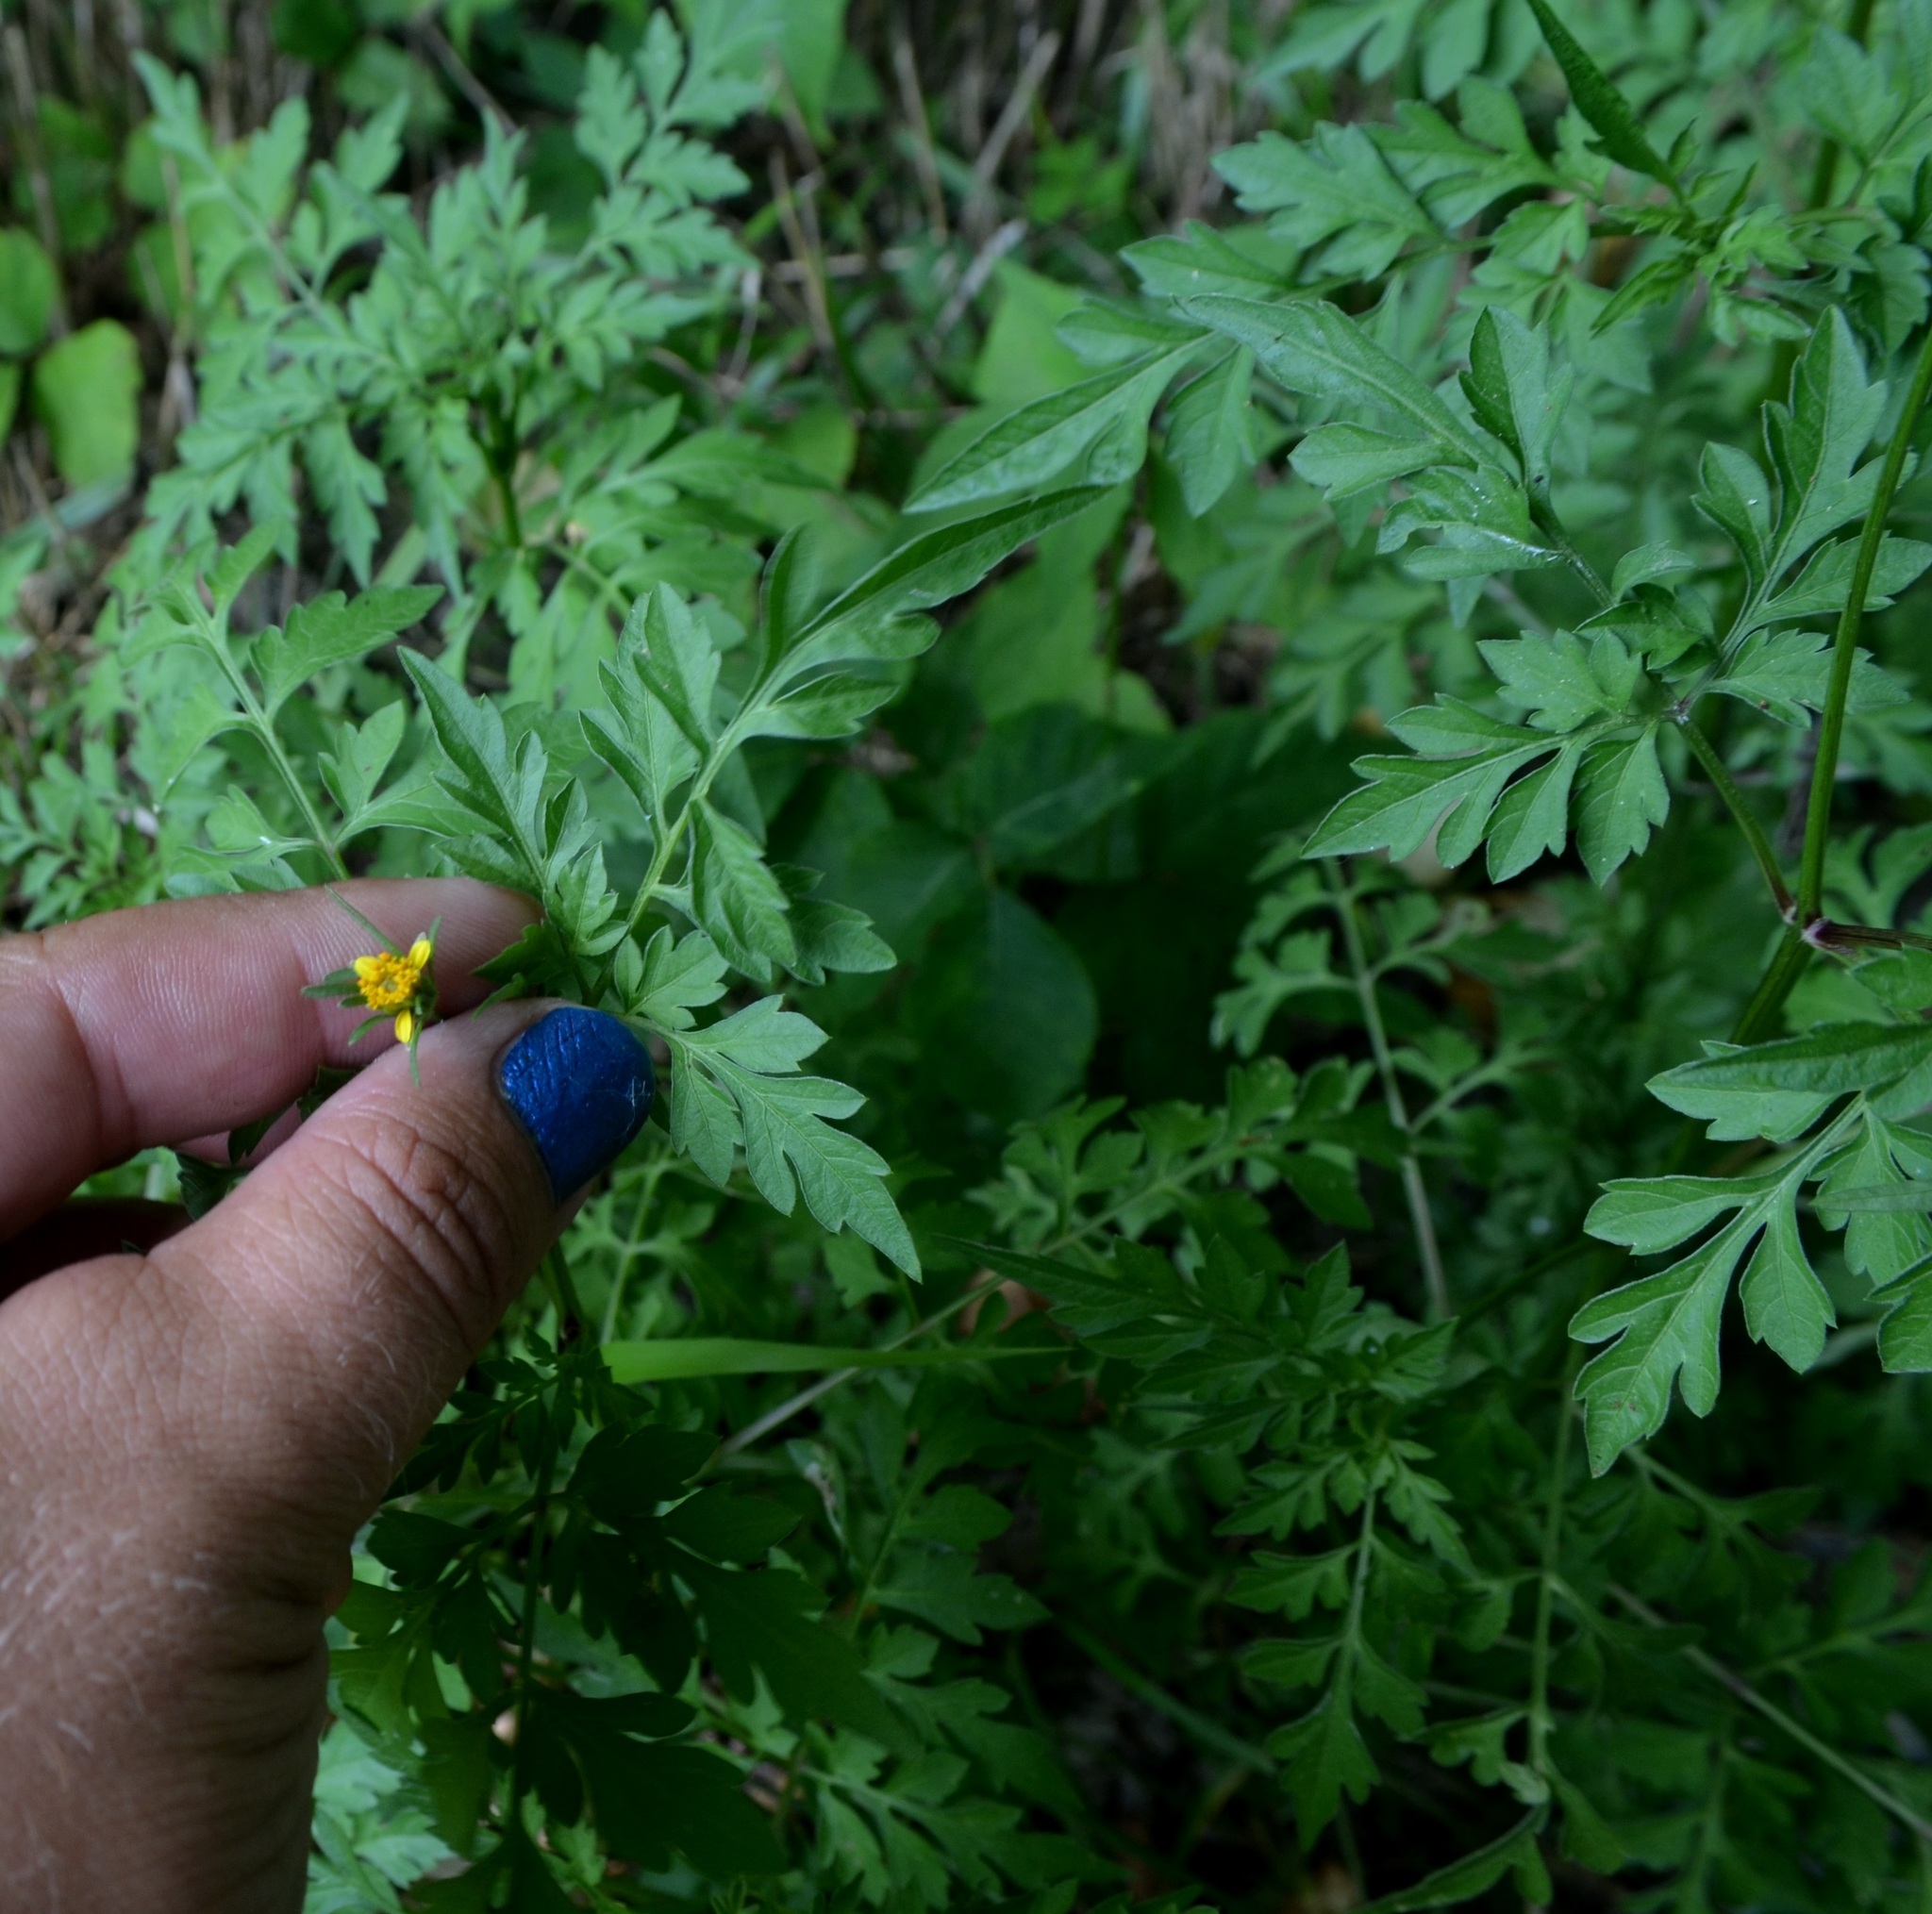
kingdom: Plantae
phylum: Tracheophyta
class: Magnoliopsida
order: Asterales
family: Asteraceae
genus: Bidens
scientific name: Bidens bipinnata
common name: Spanish-needles
